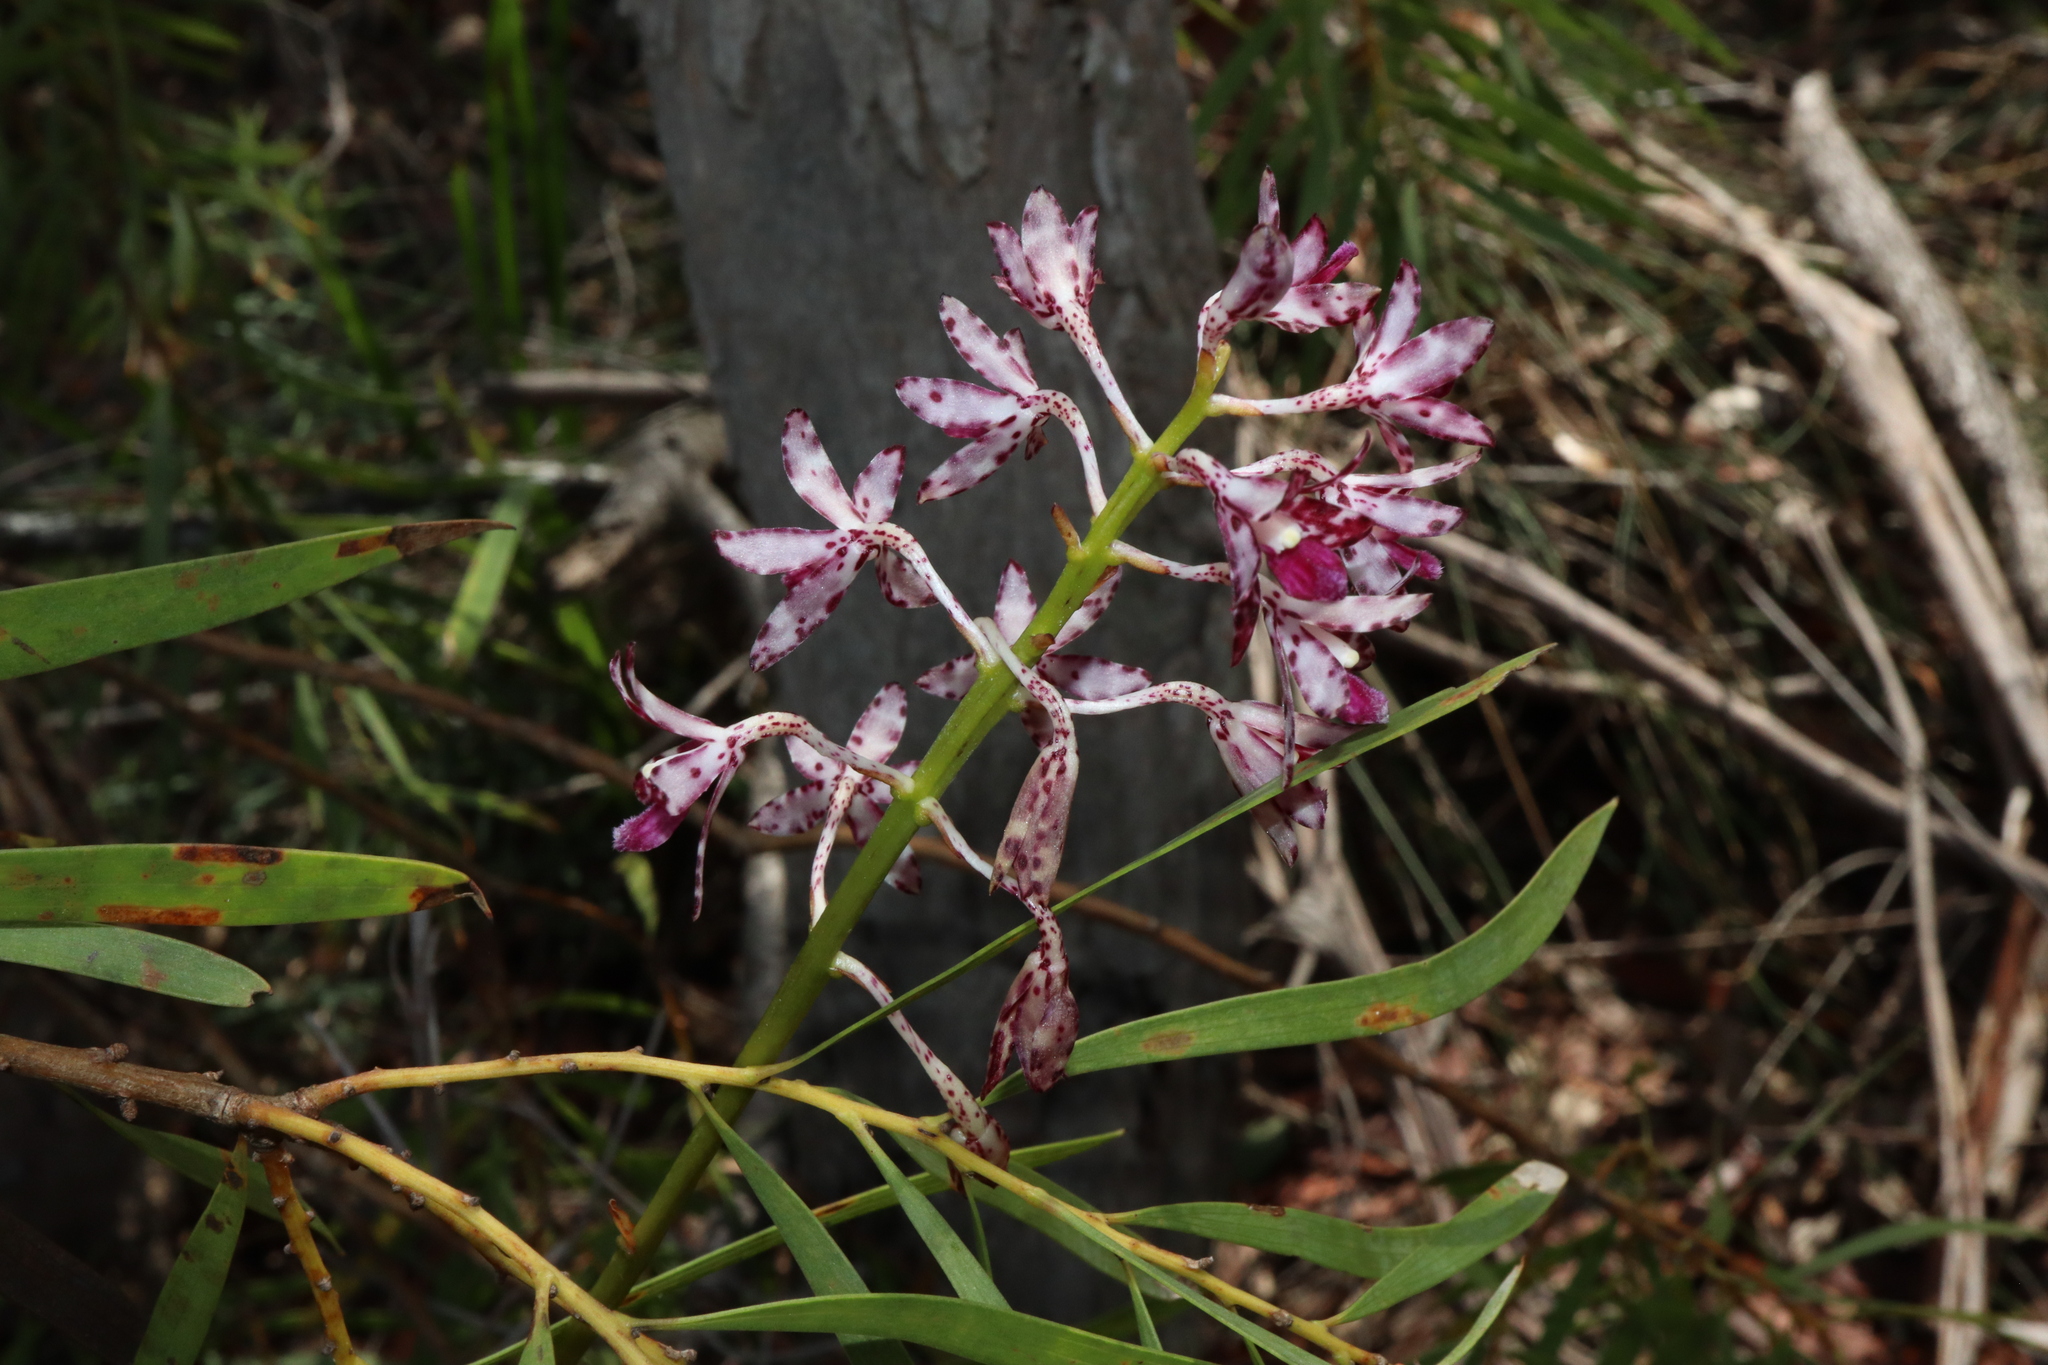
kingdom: Plantae
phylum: Tracheophyta
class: Liliopsida
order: Asparagales
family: Orchidaceae
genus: Dipodium
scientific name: Dipodium variegatum
